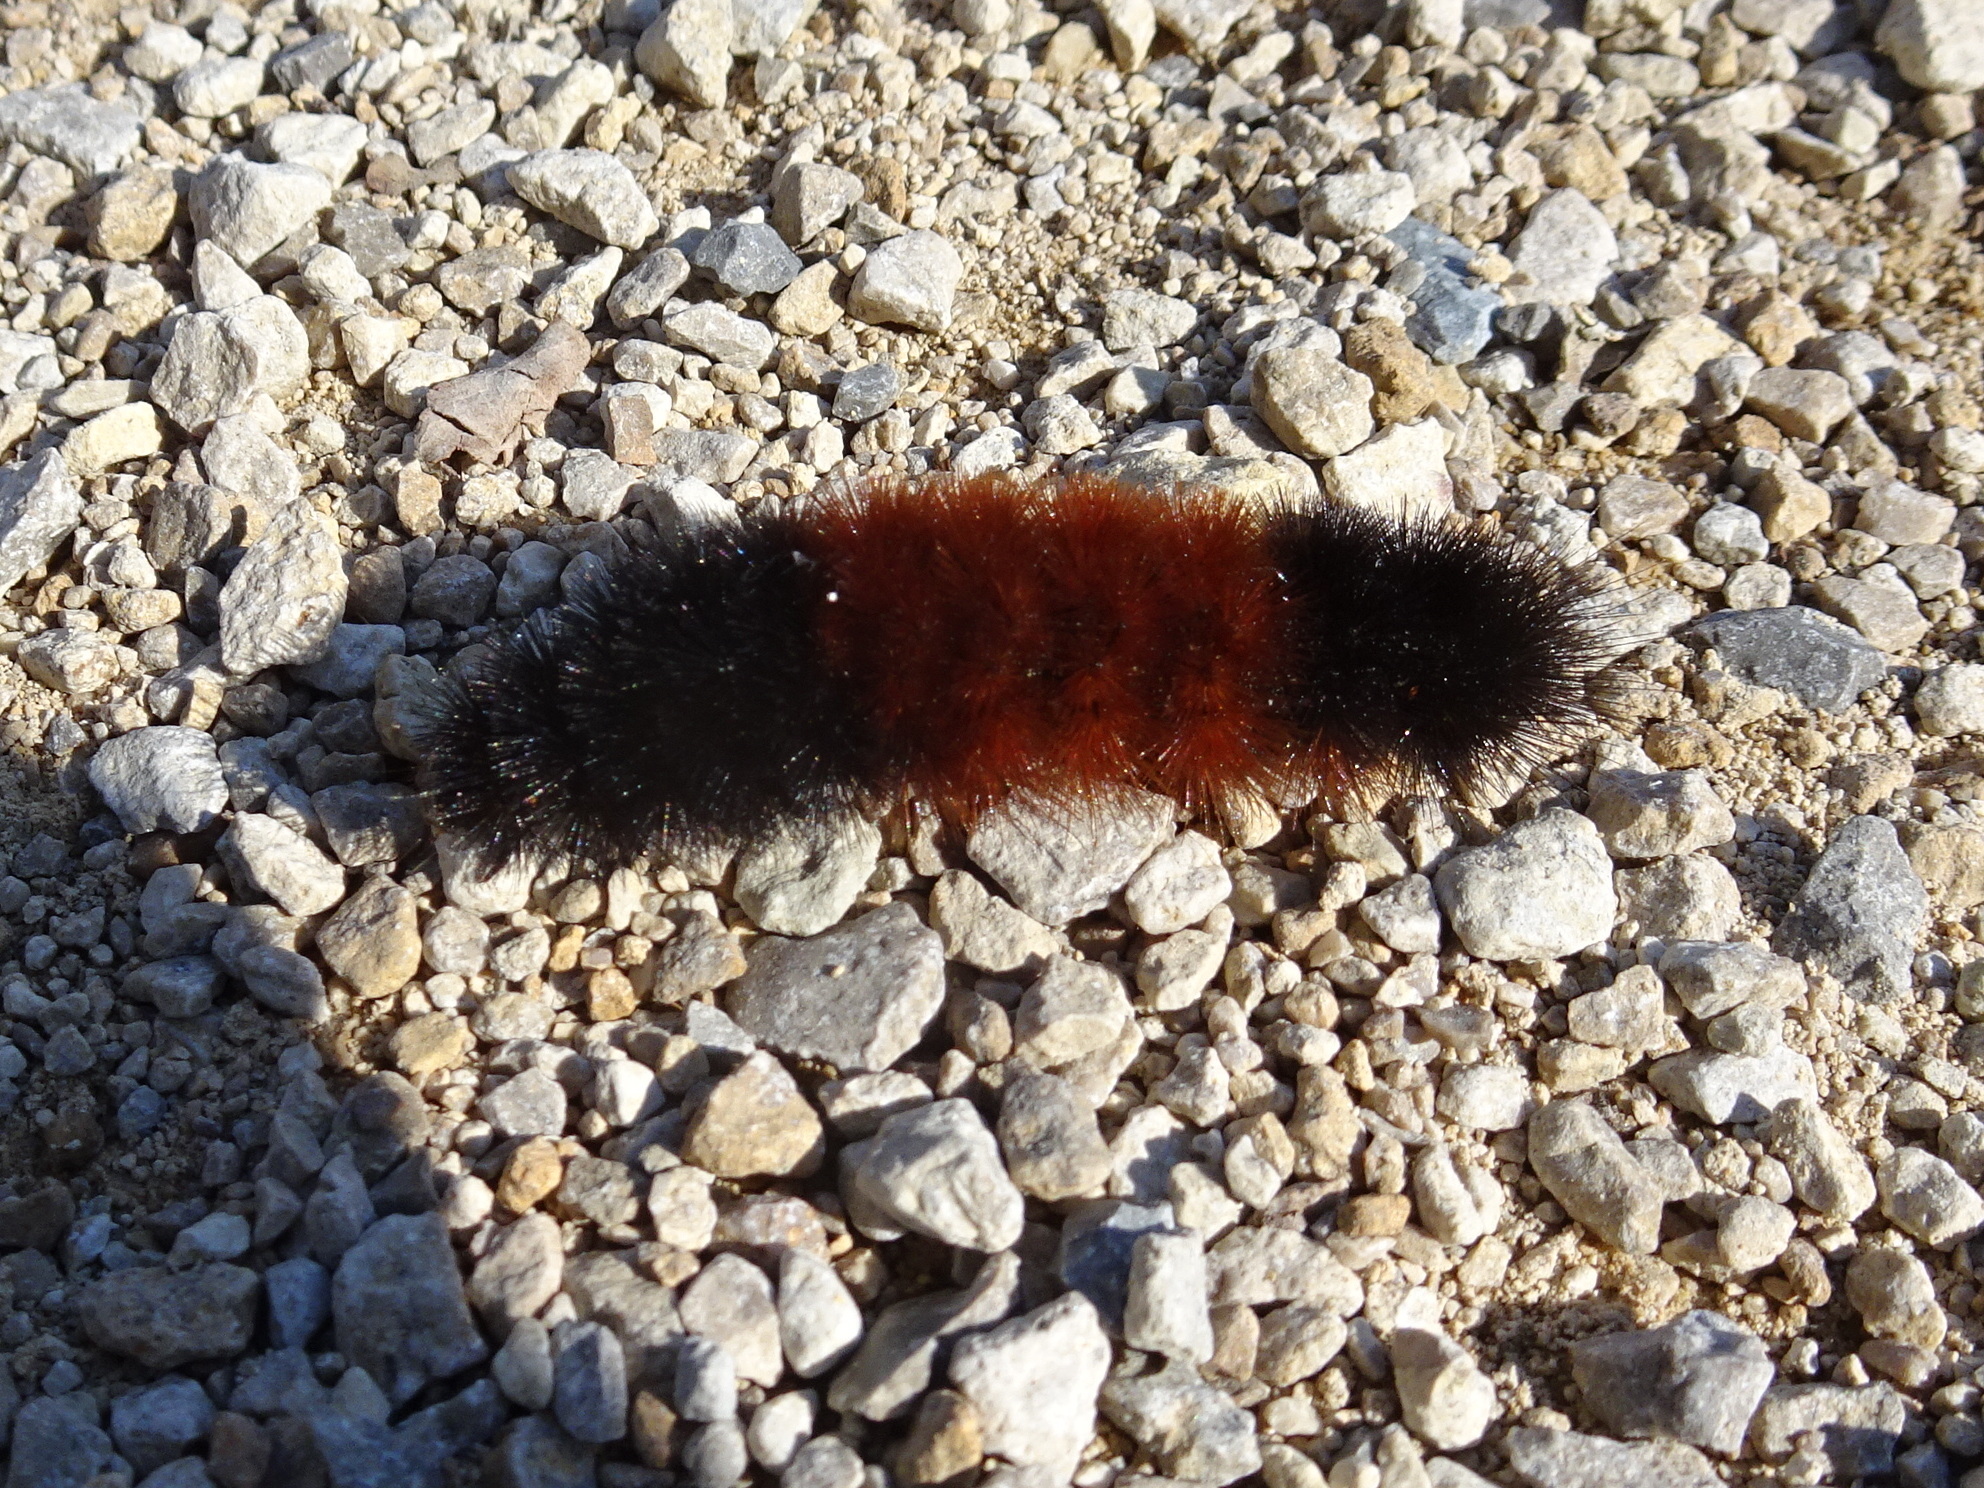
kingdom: Animalia
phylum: Arthropoda
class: Insecta
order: Lepidoptera
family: Erebidae
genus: Pyrrharctia
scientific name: Pyrrharctia isabella
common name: Isabella tiger moth
